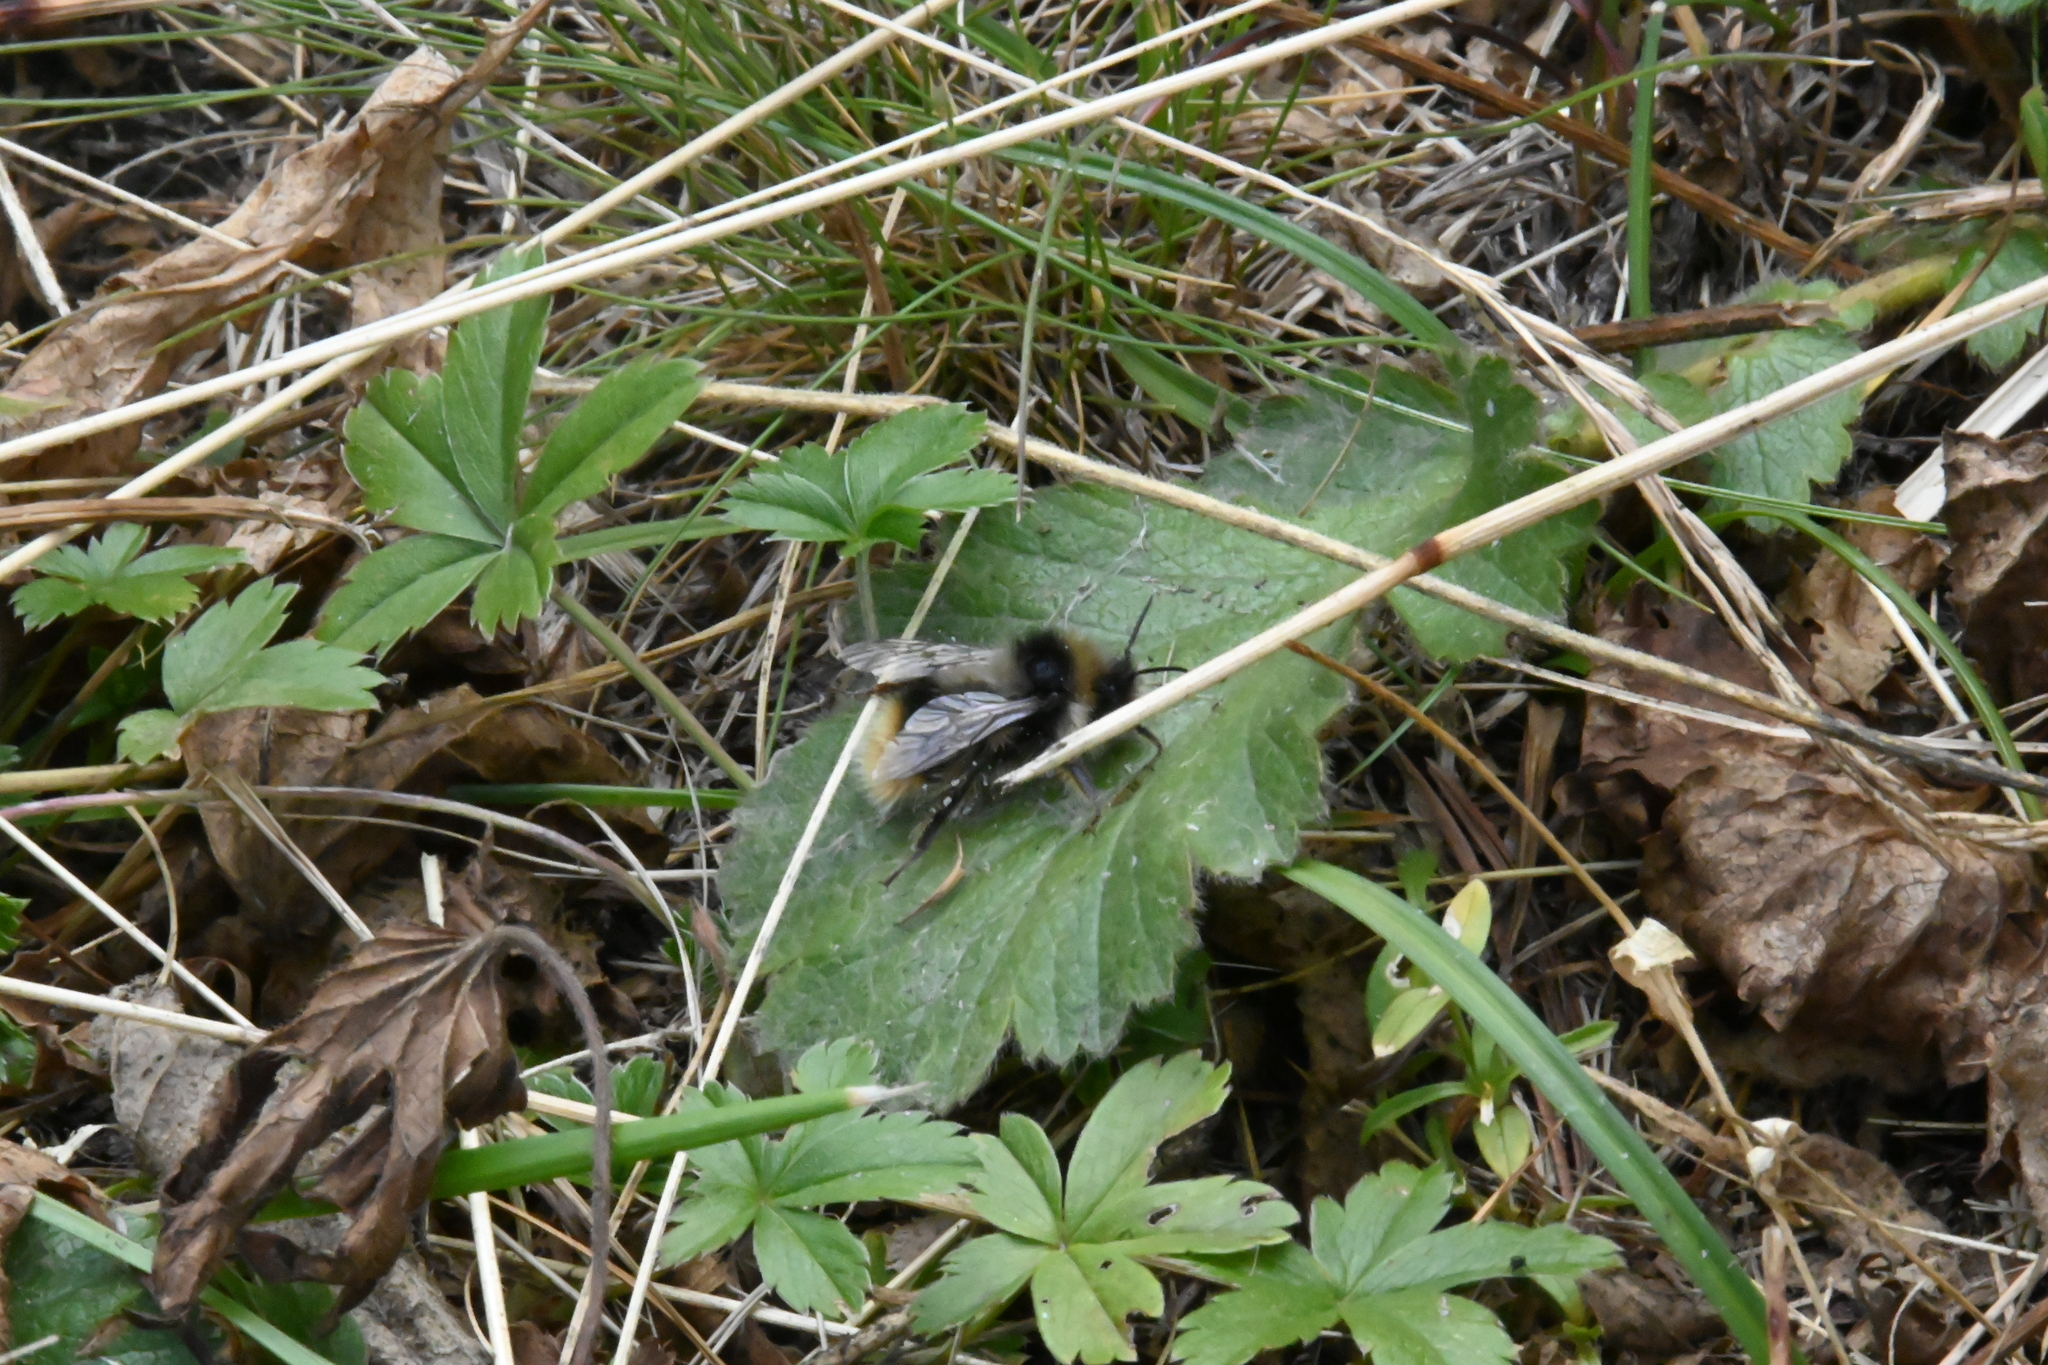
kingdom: Animalia
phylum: Arthropoda
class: Insecta
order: Hymenoptera
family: Apidae
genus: Bombus
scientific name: Bombus
